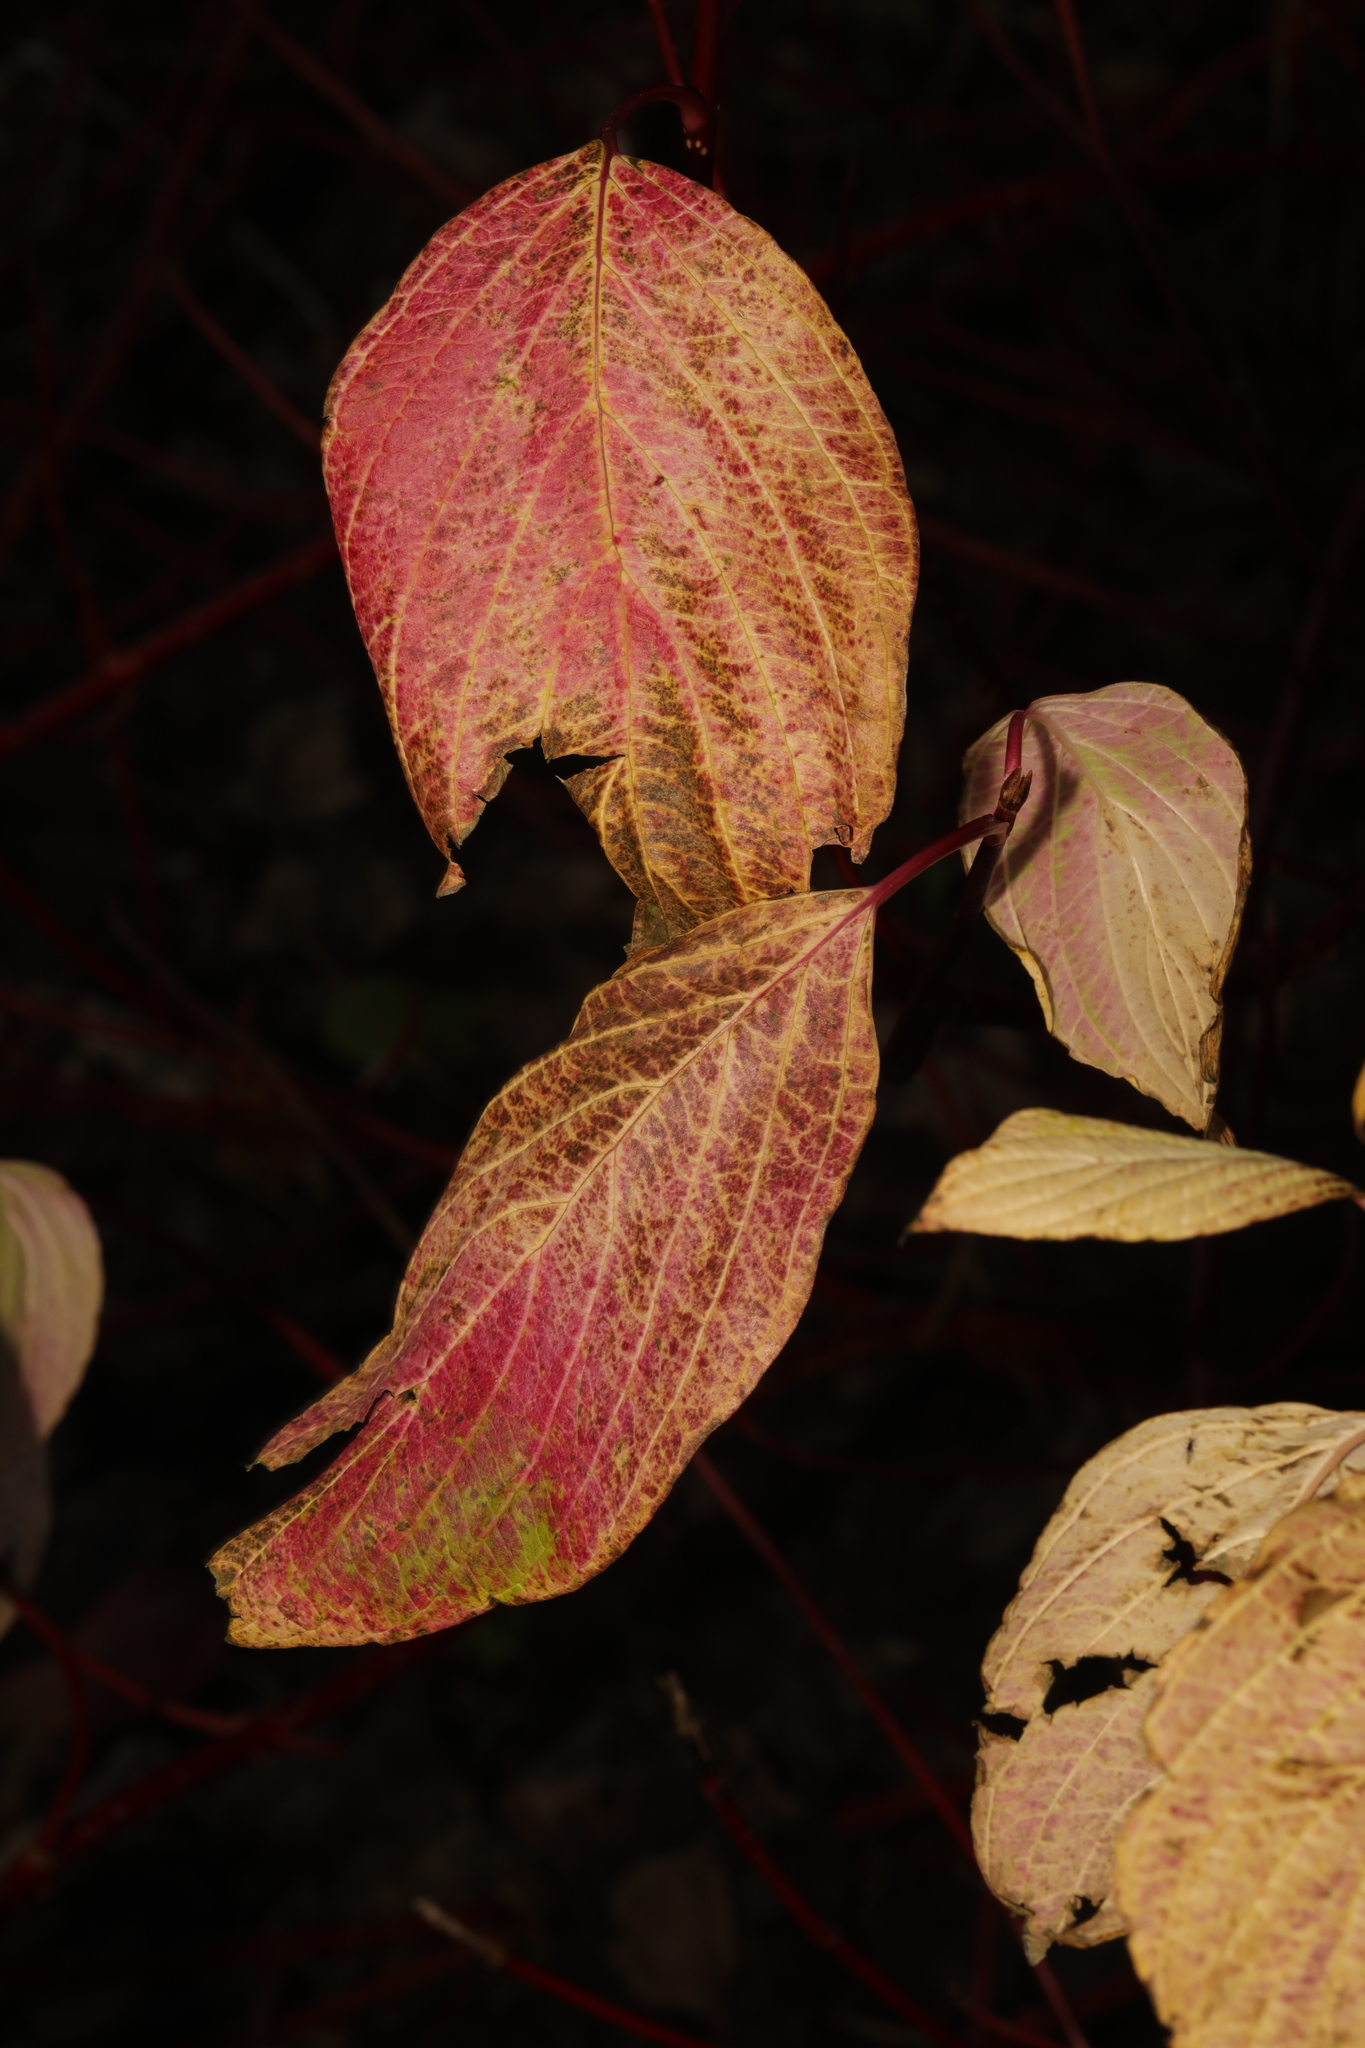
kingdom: Plantae
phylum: Tracheophyta
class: Magnoliopsida
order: Cornales
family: Cornaceae
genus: Cornus
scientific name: Cornus alba
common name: White dogwood
